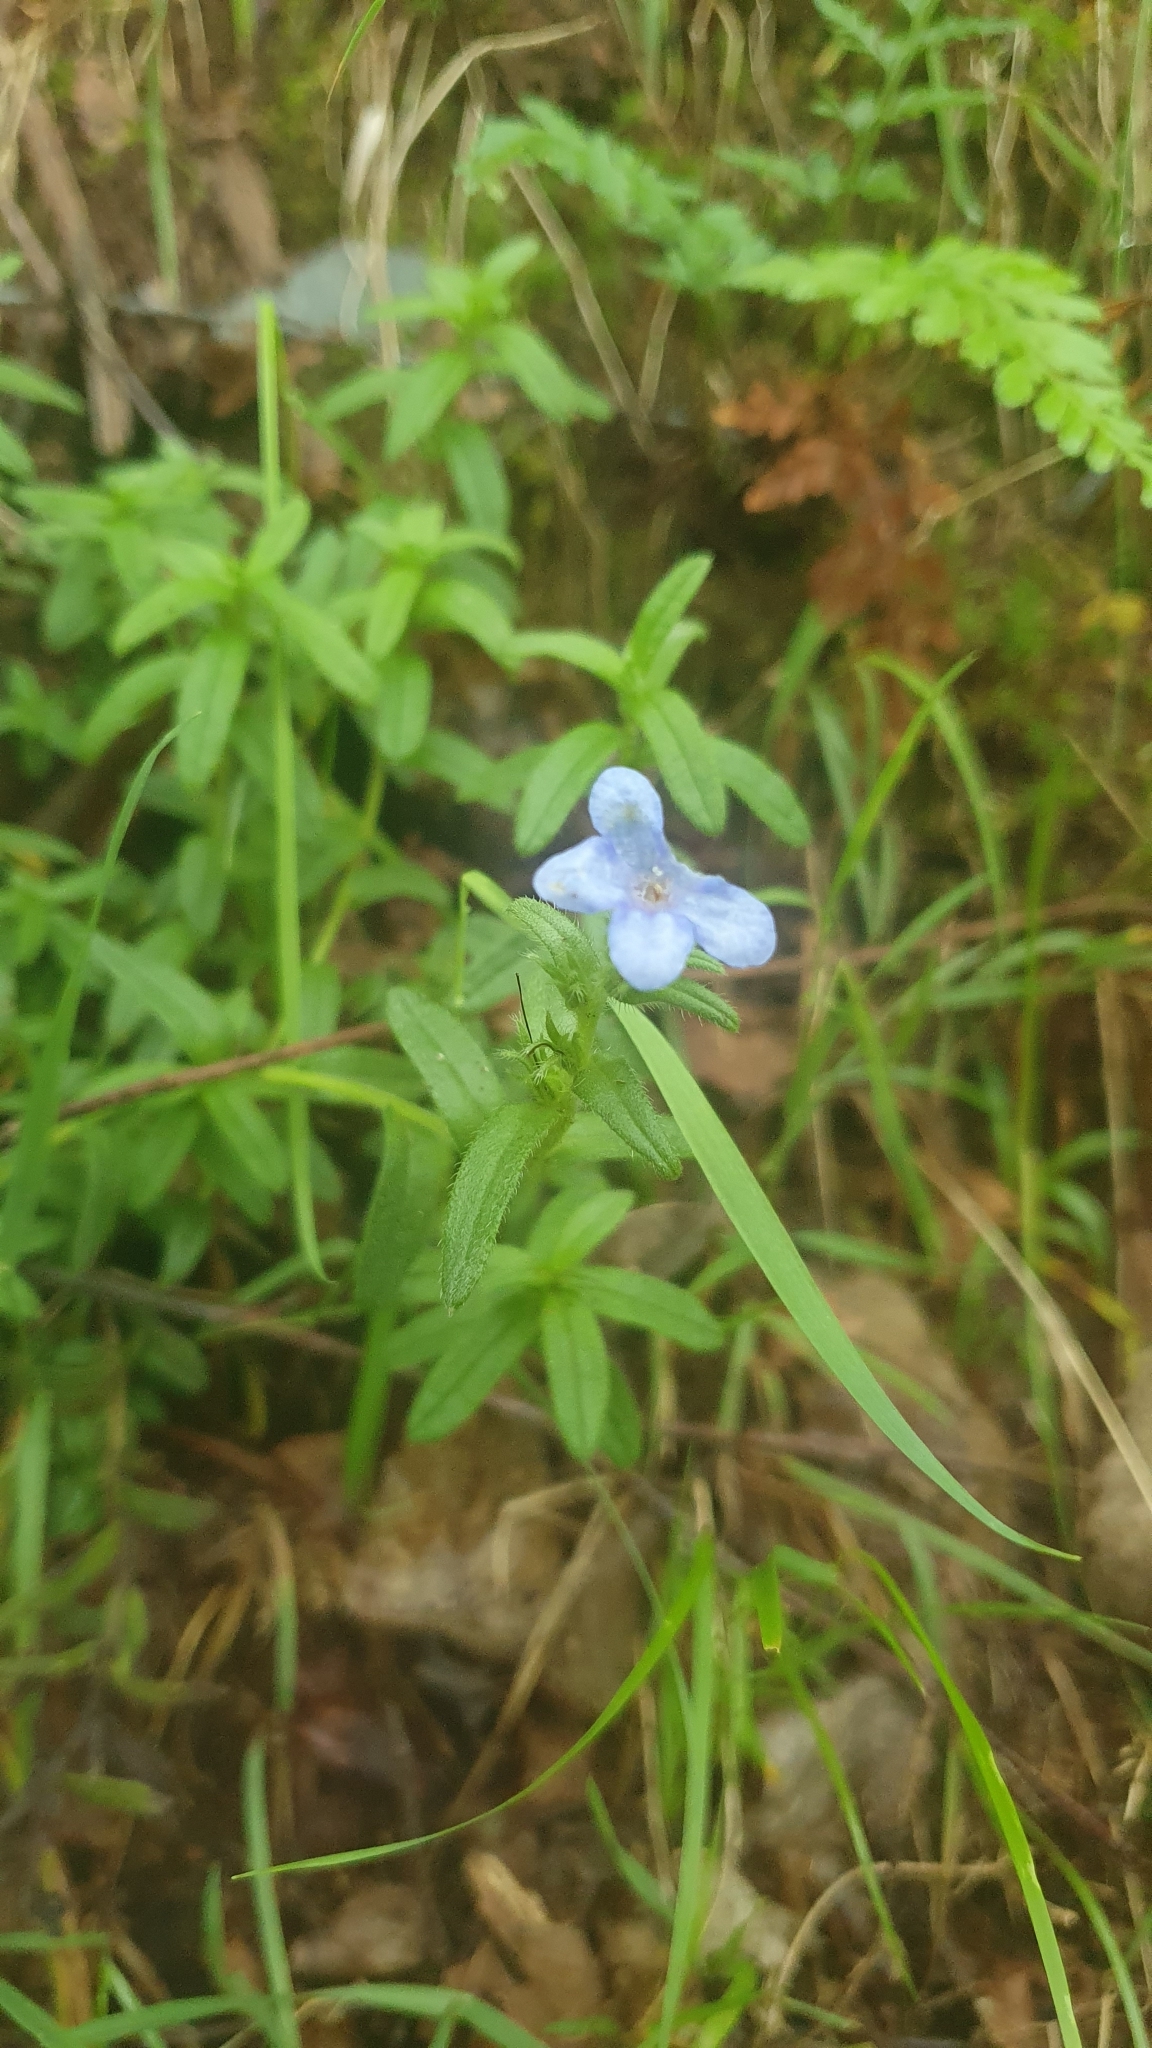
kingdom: Plantae
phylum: Tracheophyta
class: Magnoliopsida
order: Boraginales
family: Boraginaceae
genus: Glandora
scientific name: Glandora prostrata
